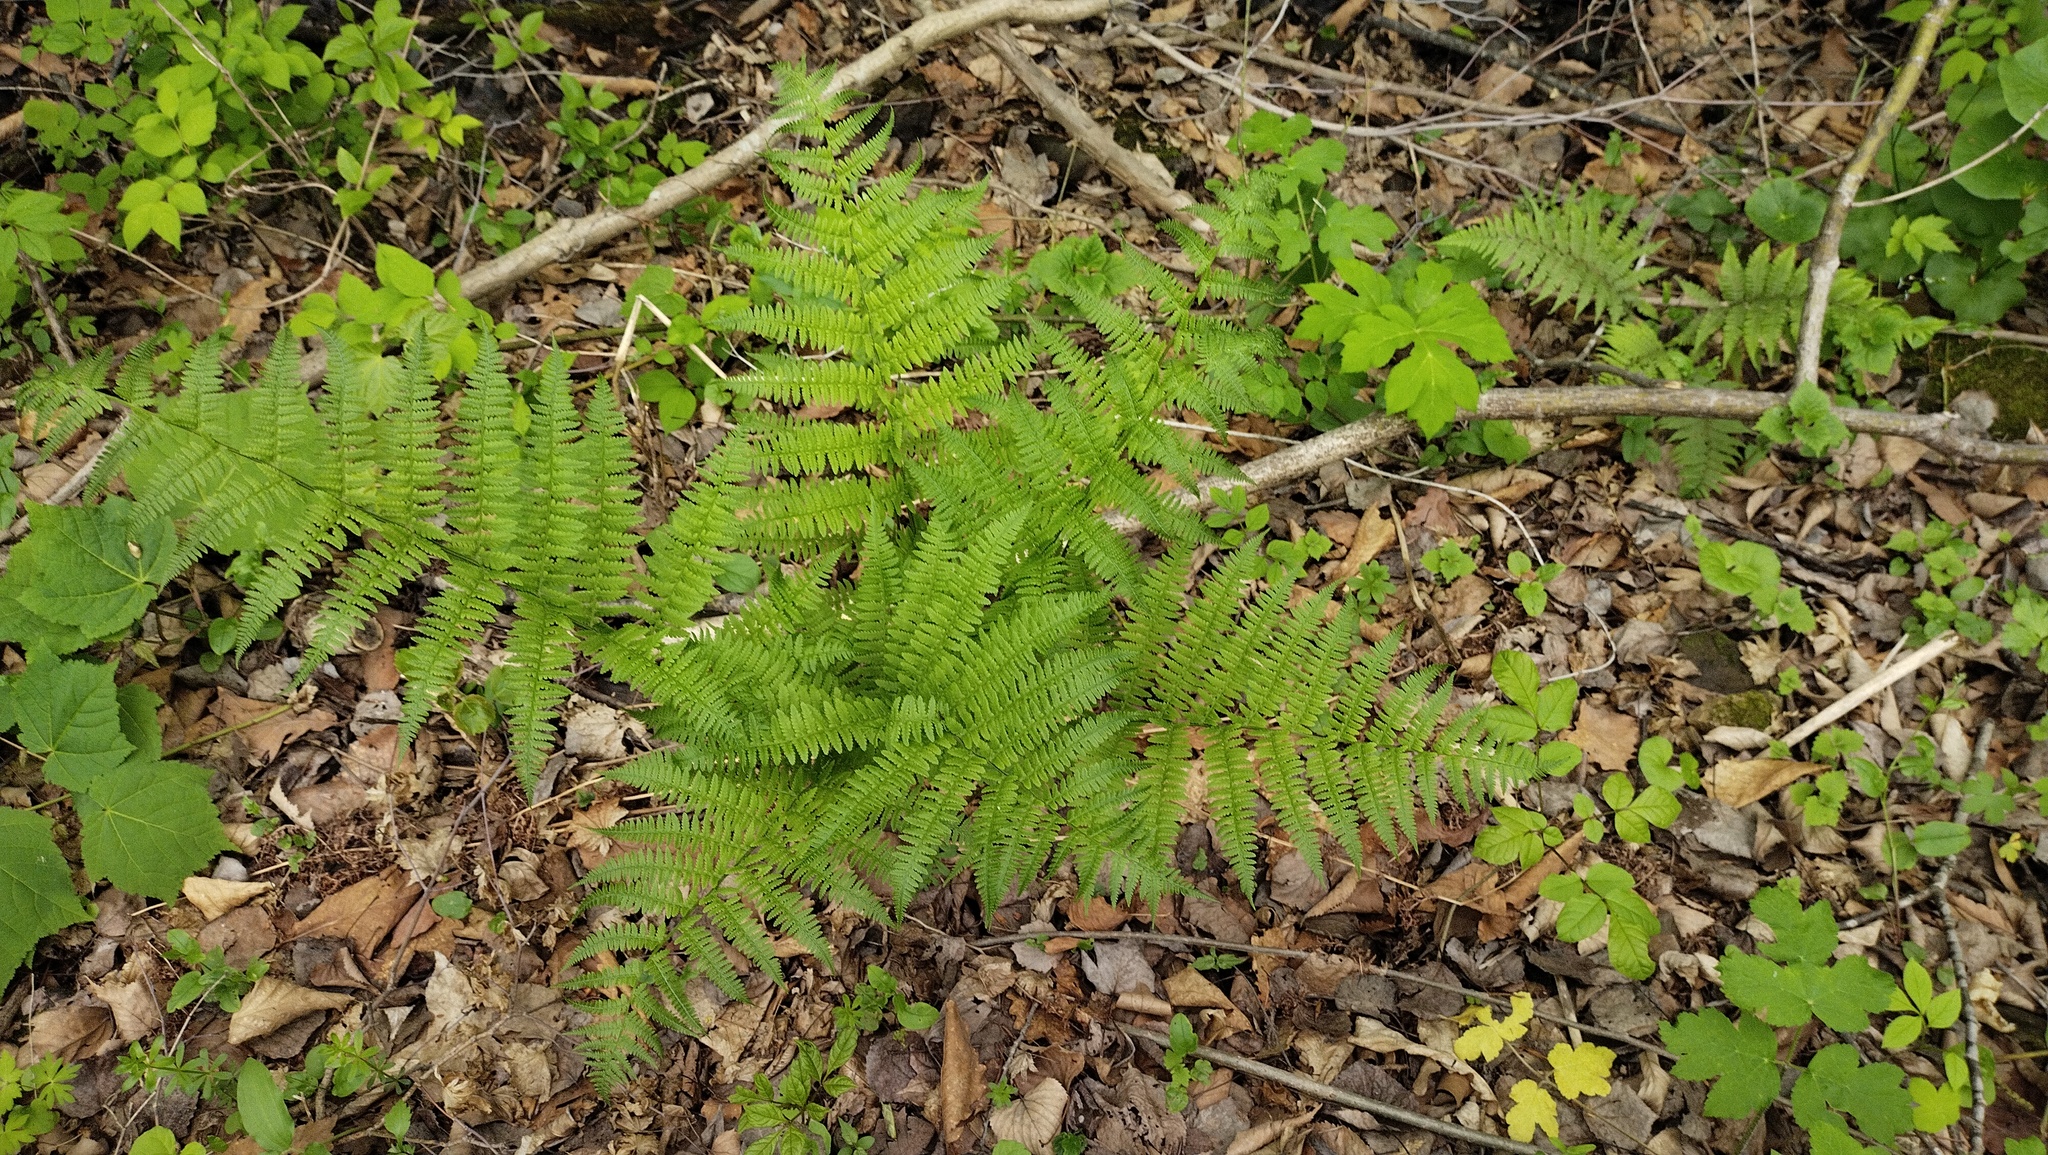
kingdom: Plantae
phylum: Tracheophyta
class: Polypodiopsida
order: Polypodiales
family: Athyriaceae
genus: Athyrium
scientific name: Athyrium filix-femina
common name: Lady fern
